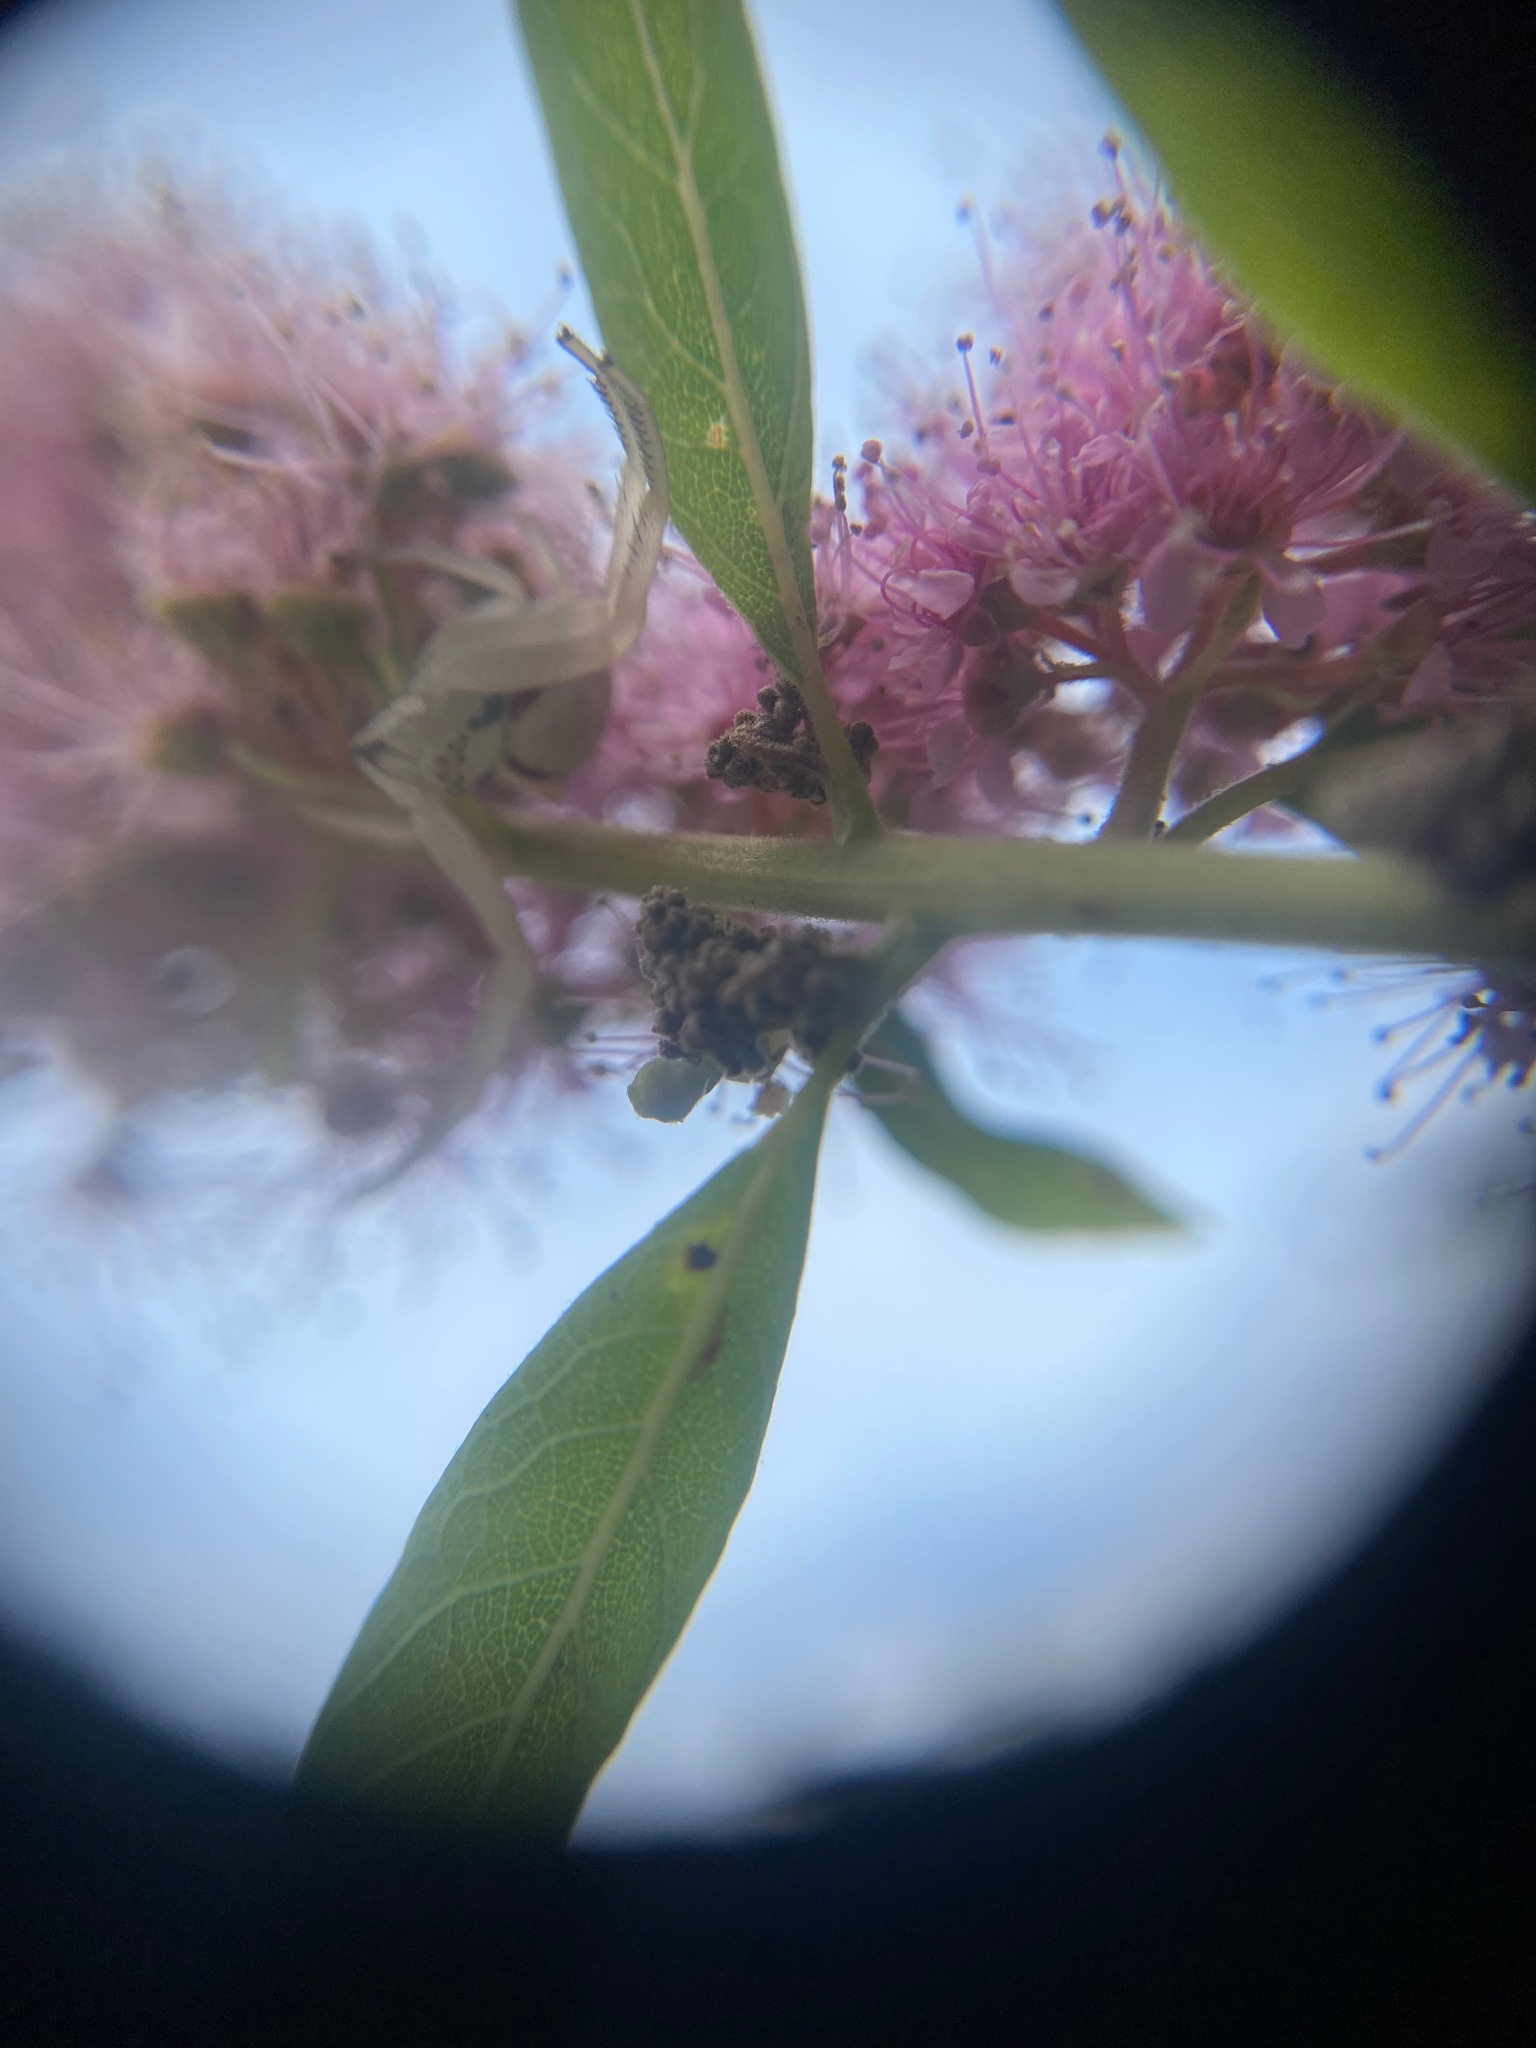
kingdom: Animalia
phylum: Arthropoda
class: Arachnida
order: Araneae
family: Thomisidae
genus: Misumena
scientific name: Misumena vatia
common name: Goldenrod crab spider
